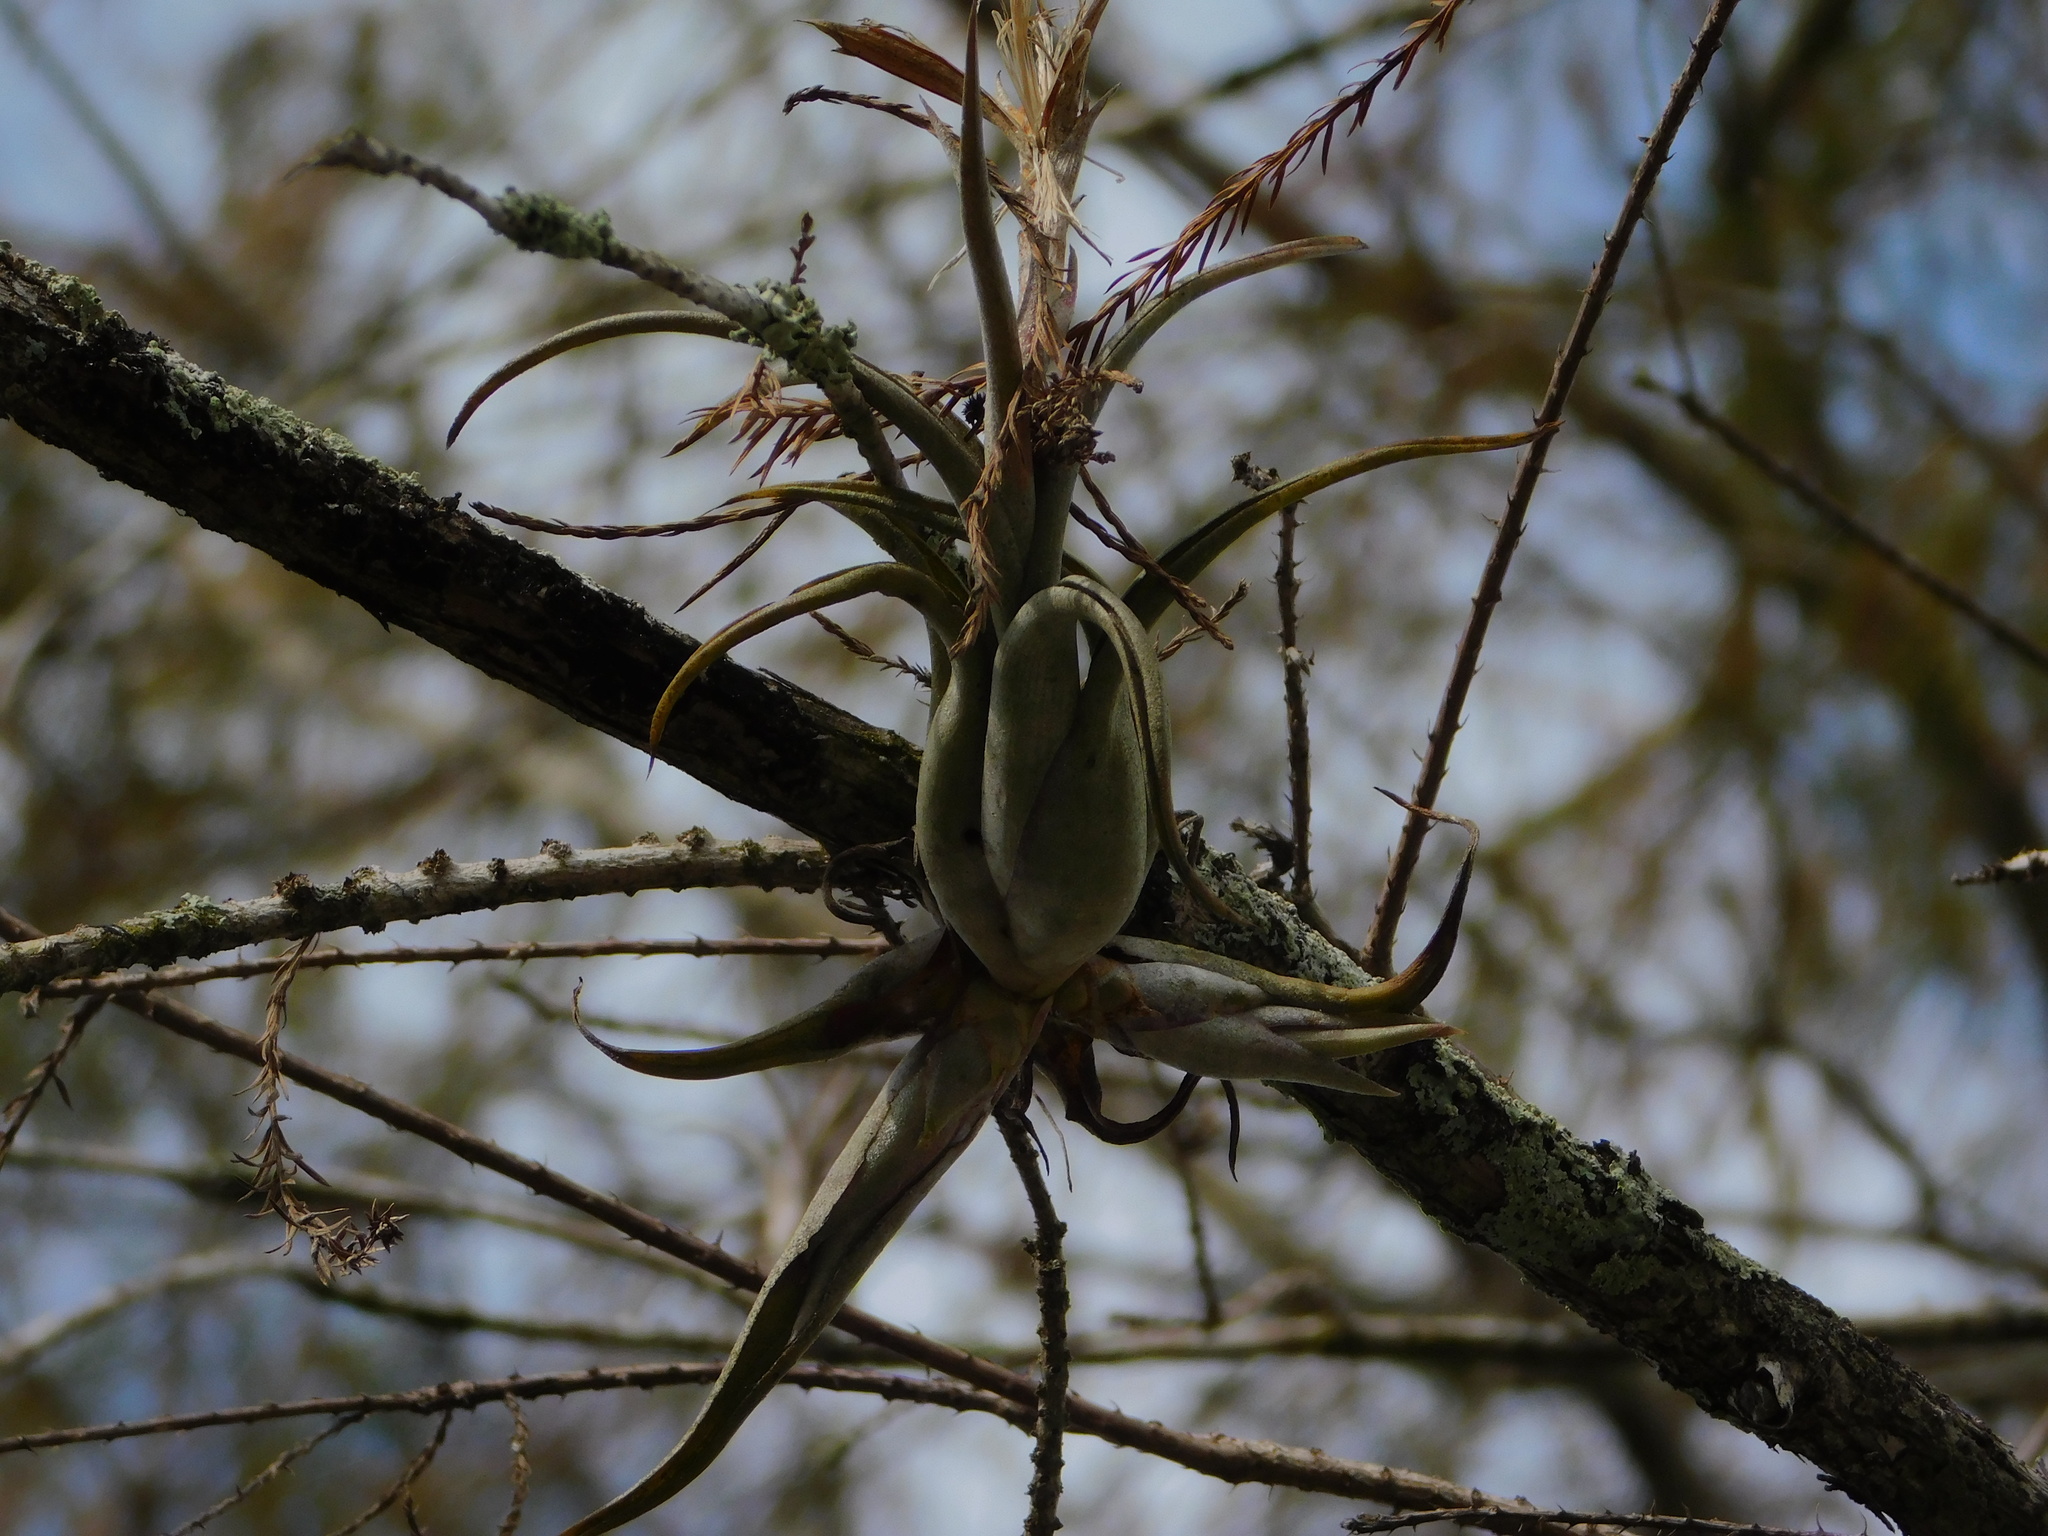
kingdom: Plantae
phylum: Tracheophyta
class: Liliopsida
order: Poales
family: Bromeliaceae
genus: Tillandsia
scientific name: Tillandsia paucifolia
